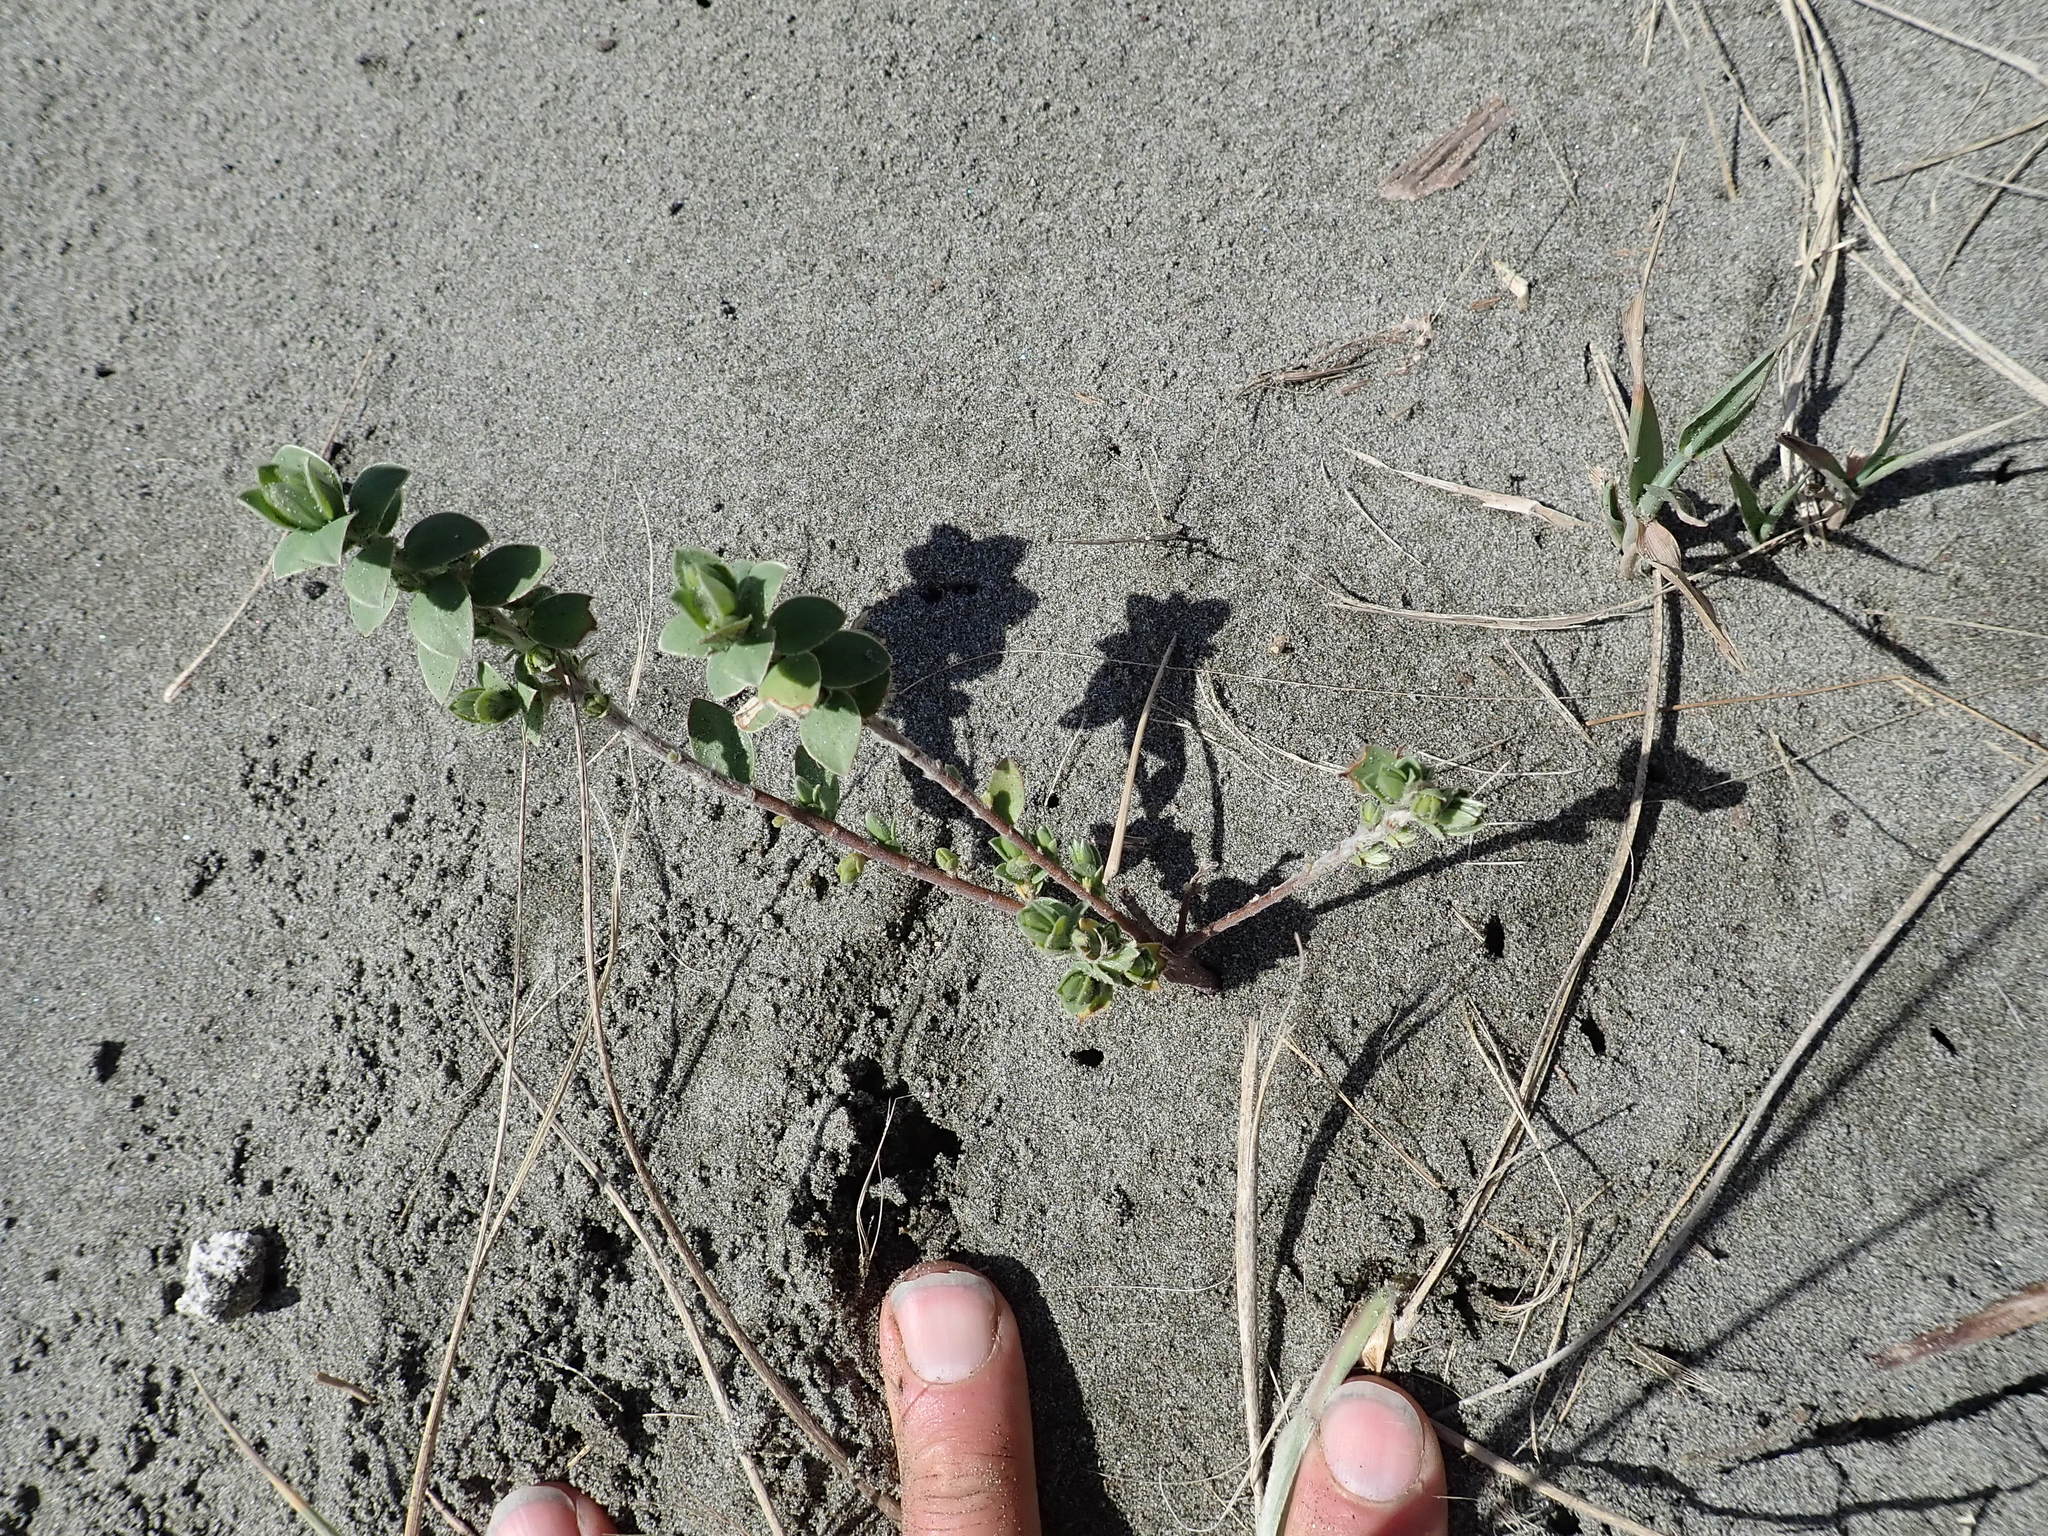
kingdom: Plantae
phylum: Tracheophyta
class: Magnoliopsida
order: Malvales
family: Thymelaeaceae
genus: Pimelea
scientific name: Pimelea villosa
